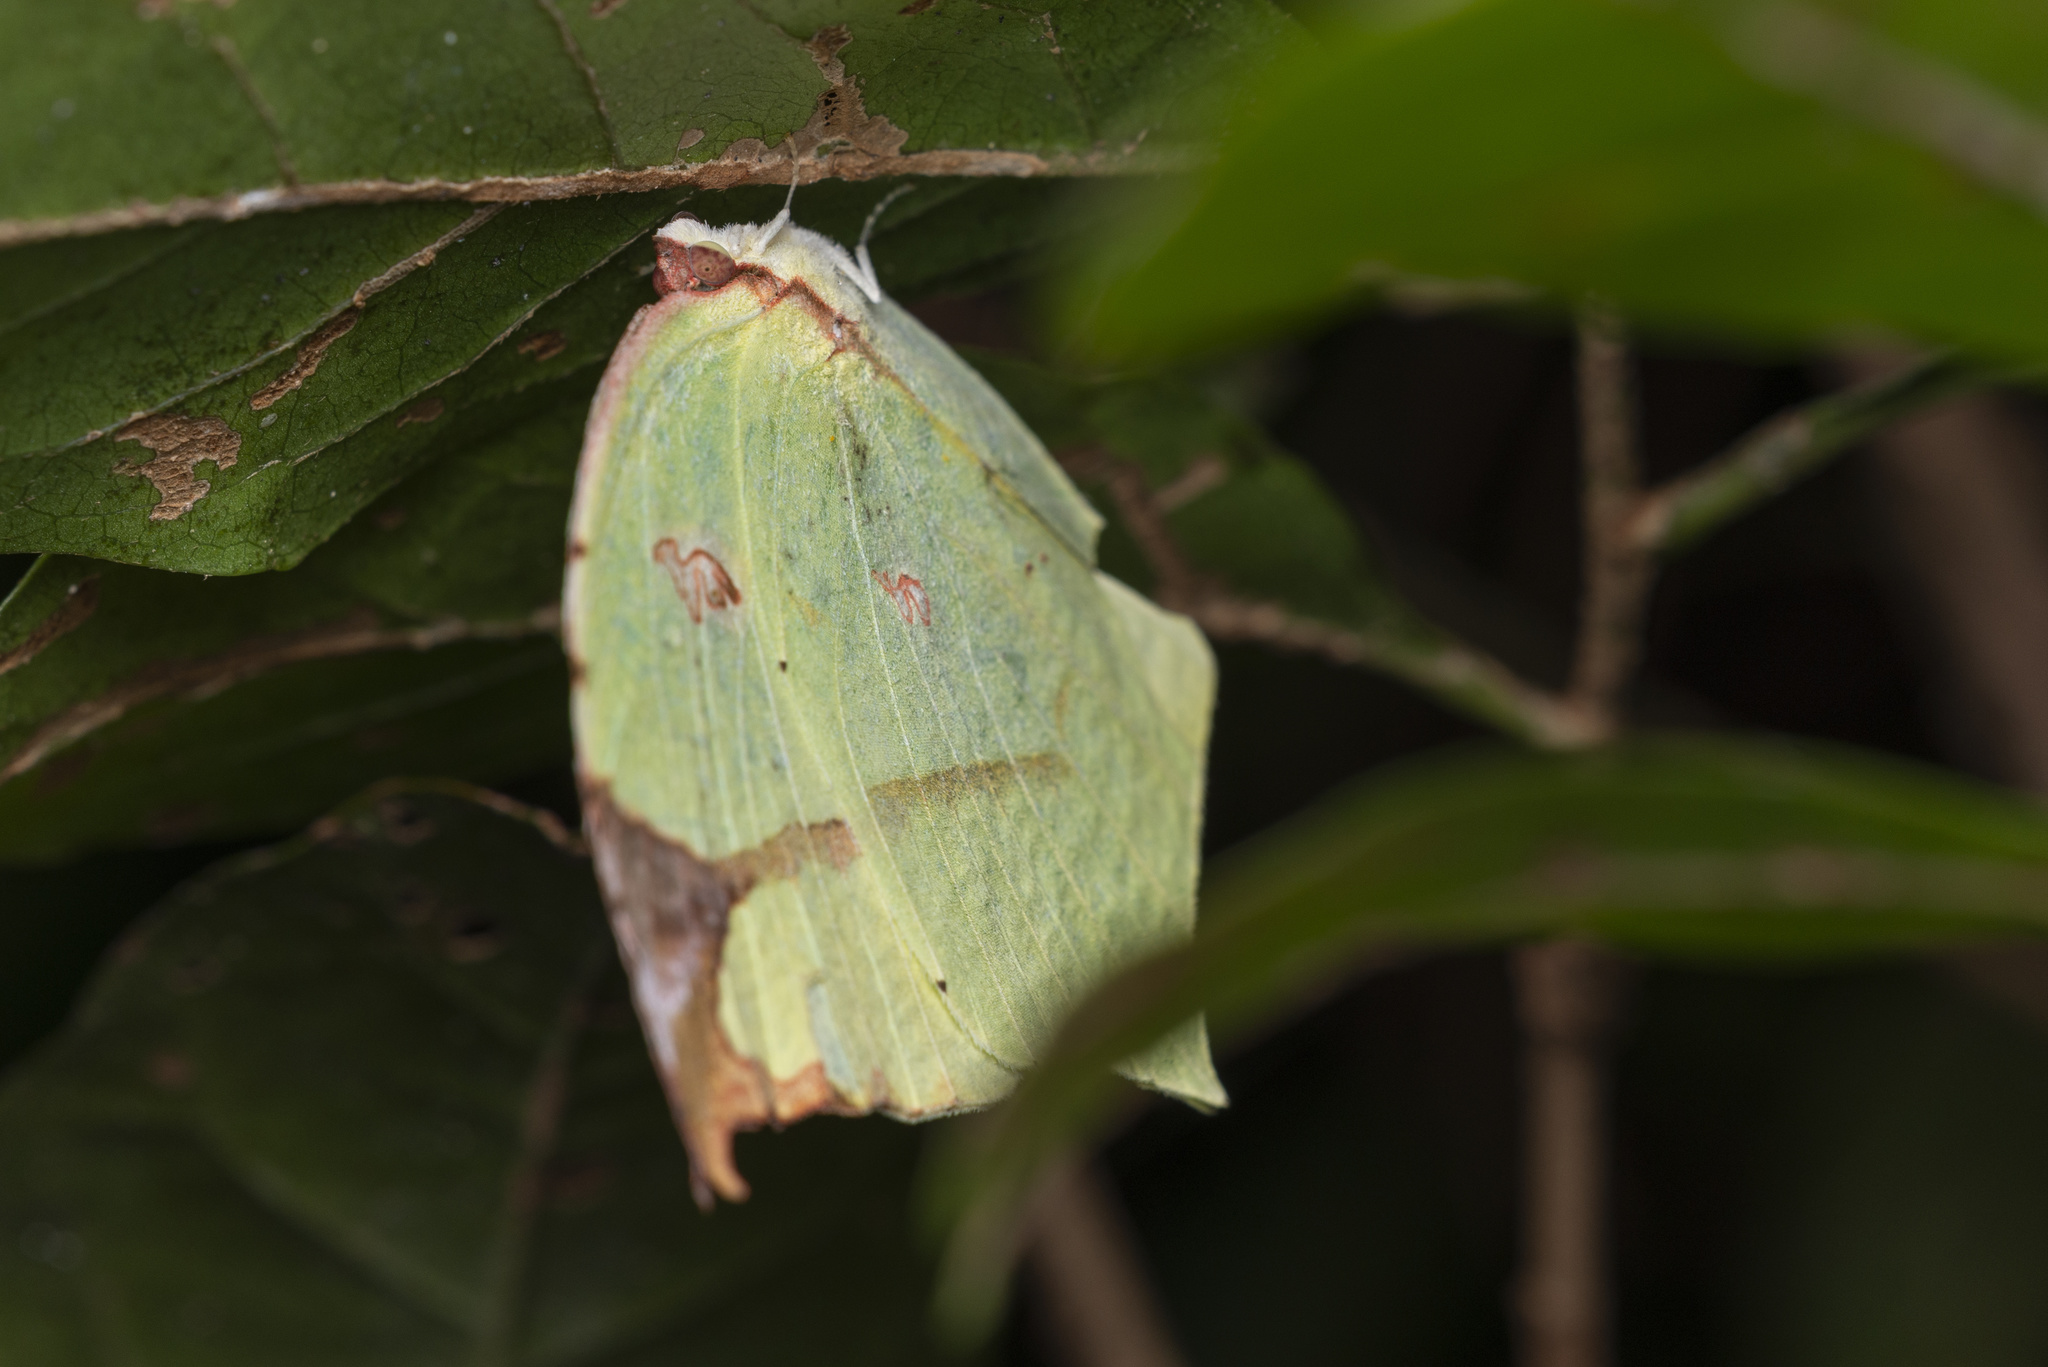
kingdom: Animalia
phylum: Arthropoda
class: Insecta
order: Lepidoptera
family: Pieridae
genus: Dercas
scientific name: Dercas verhuelli
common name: Tailed sulphur
